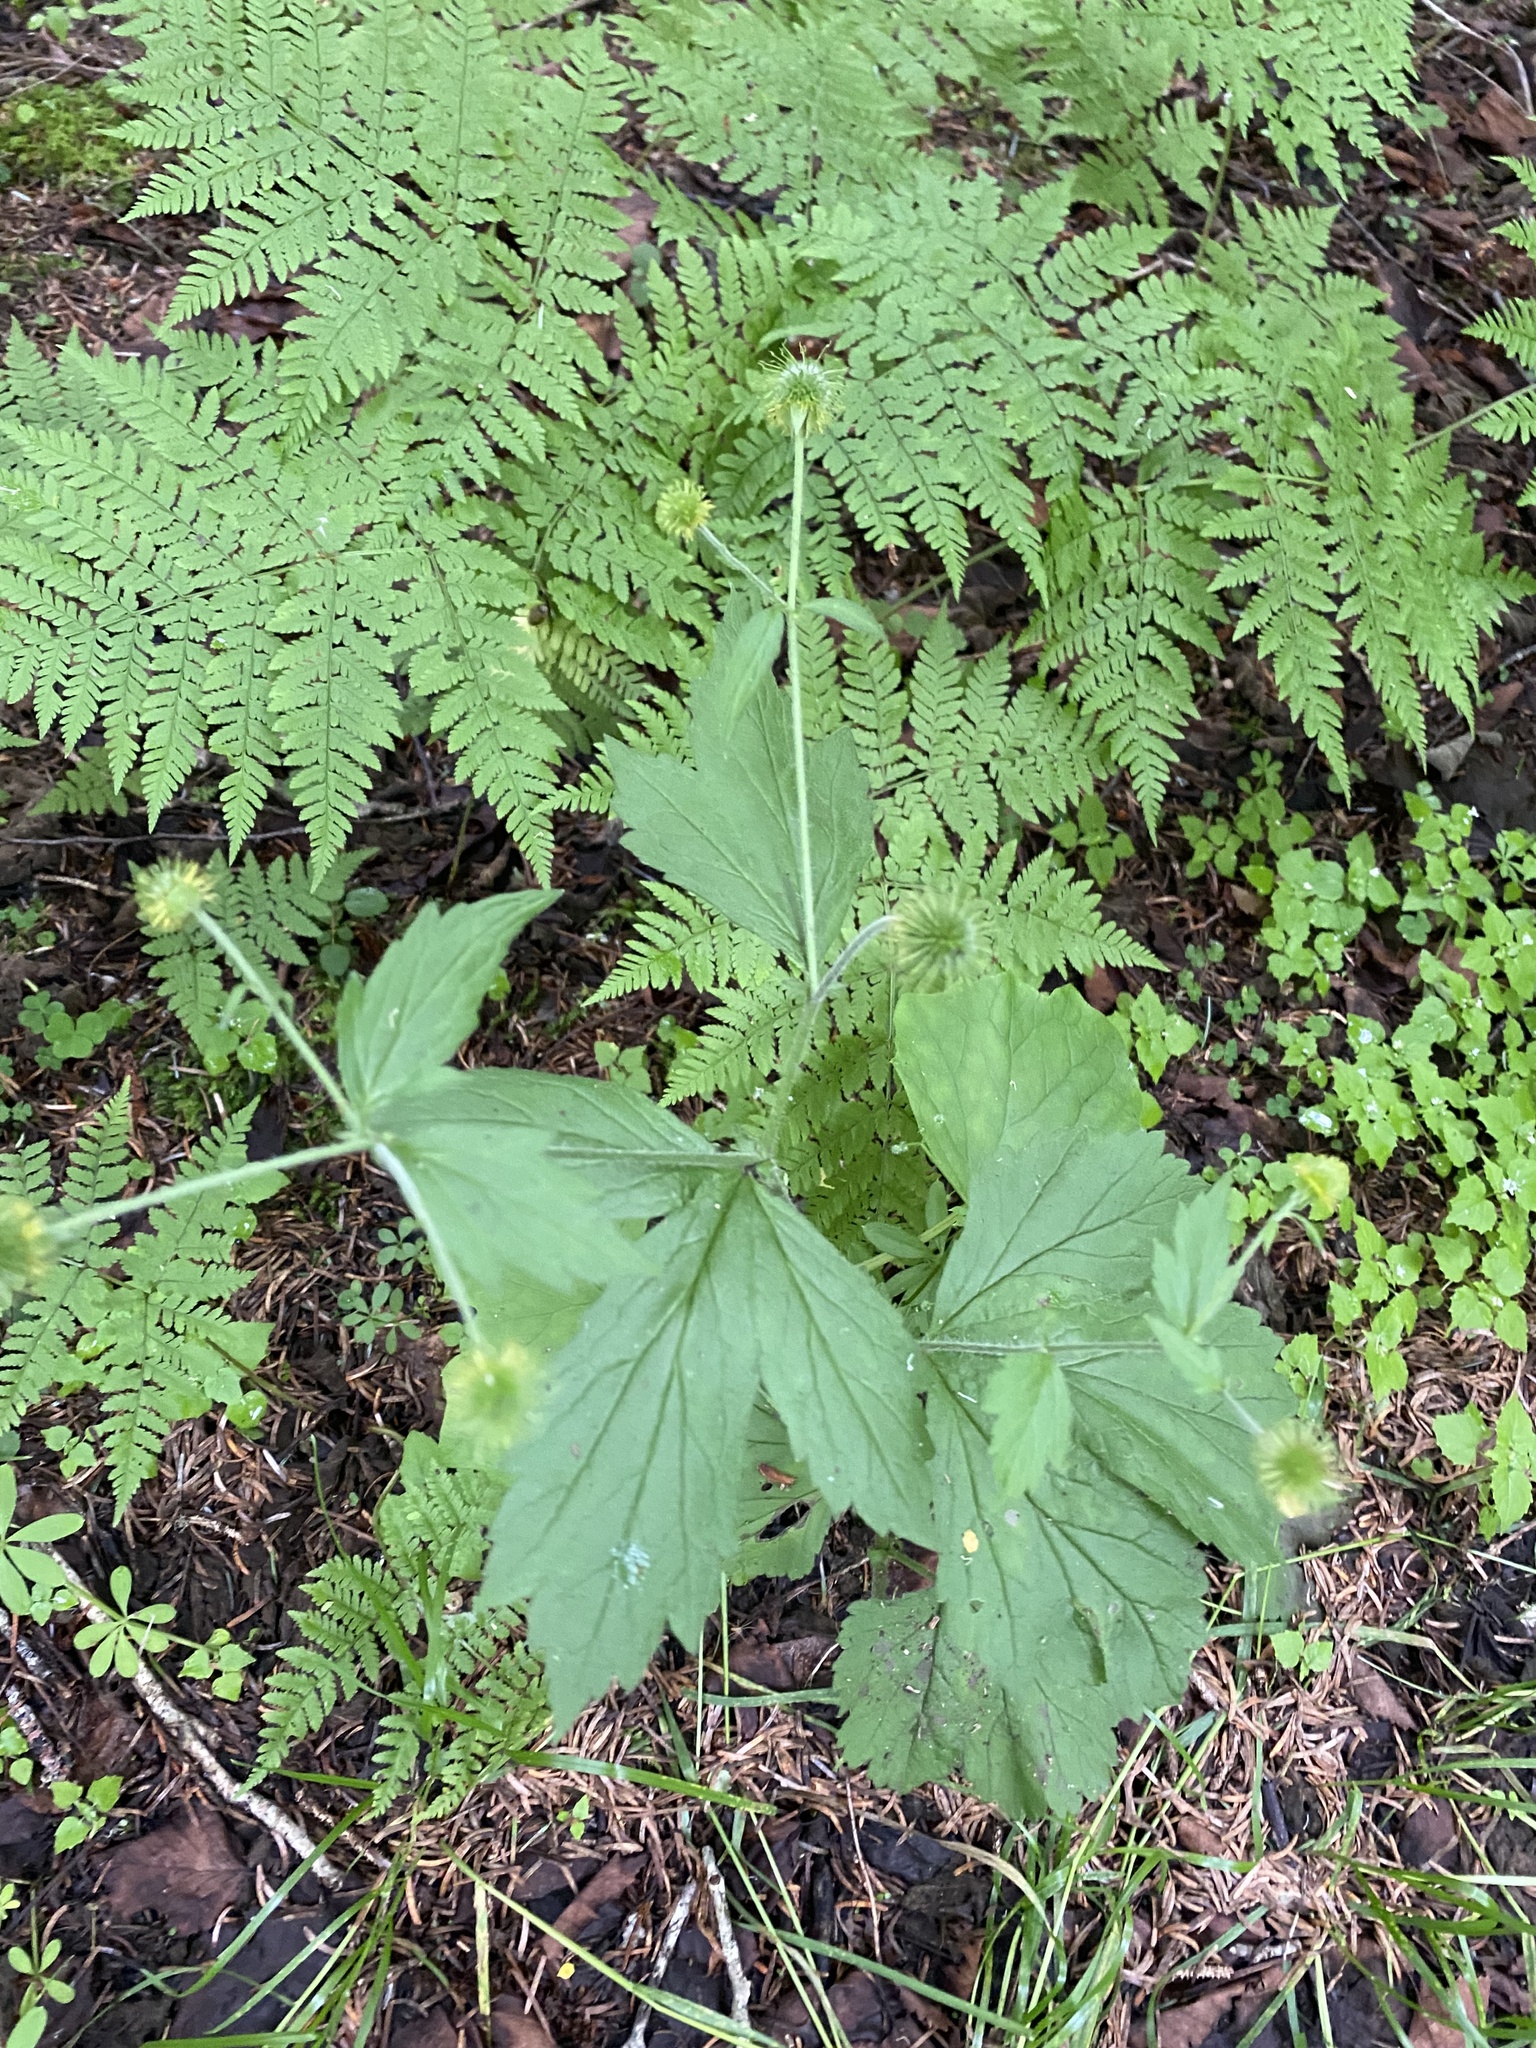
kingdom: Plantae
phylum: Tracheophyta
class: Magnoliopsida
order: Rosales
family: Rosaceae
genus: Geum
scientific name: Geum aleppicum
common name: Yellow avens
